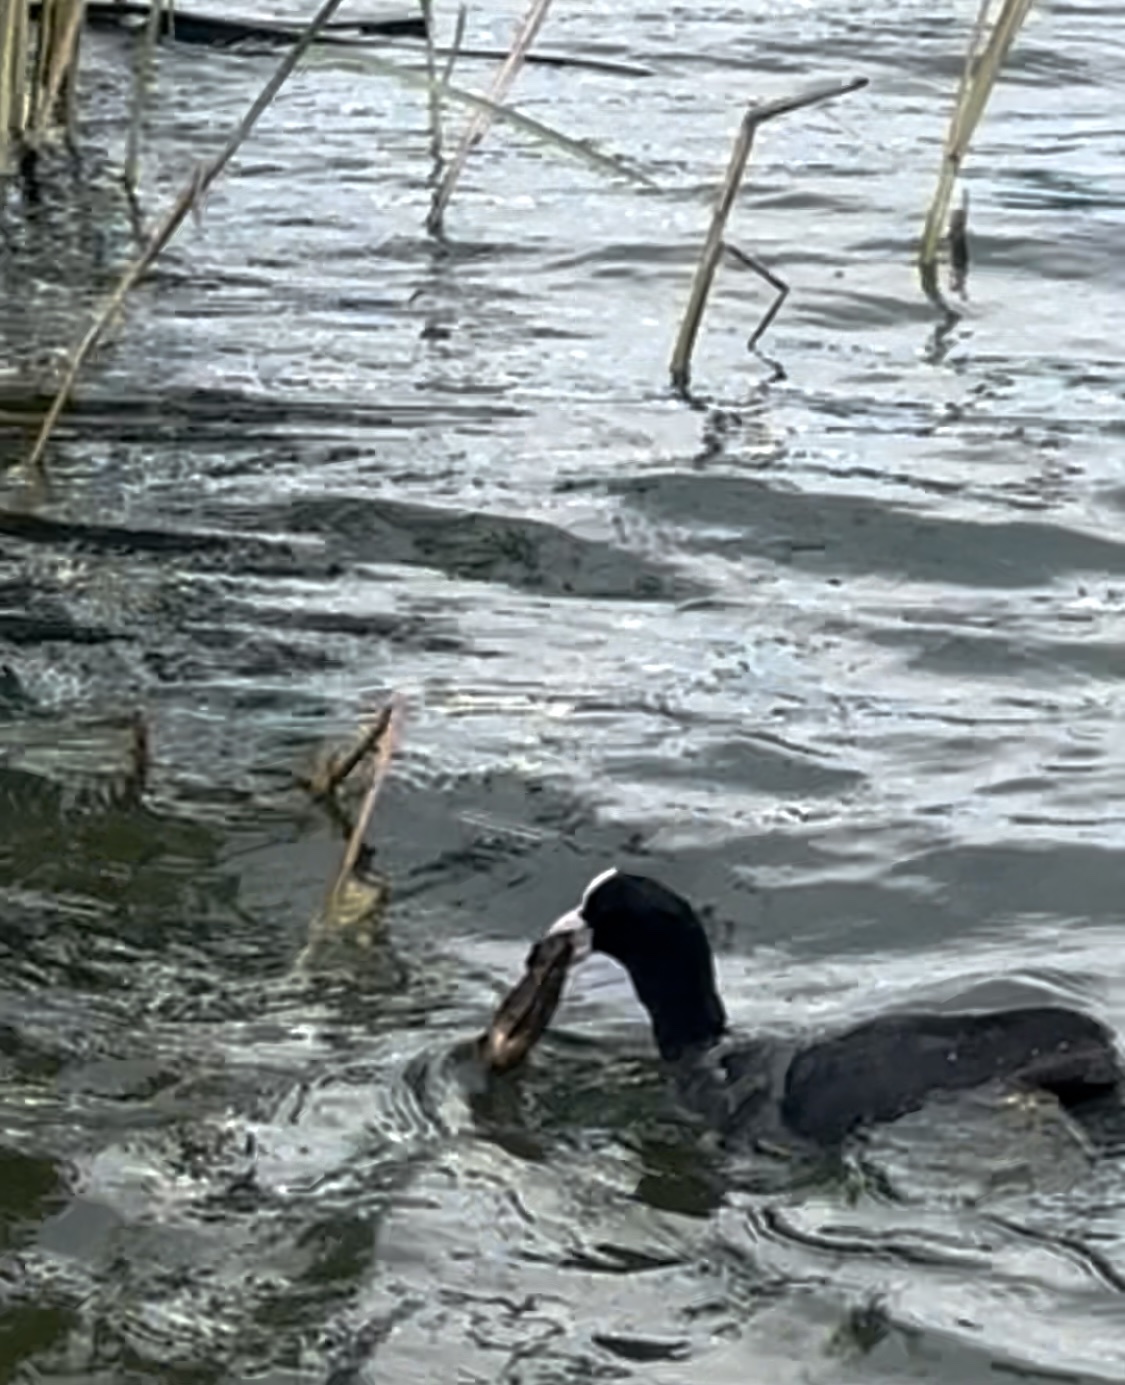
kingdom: Animalia
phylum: Chordata
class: Aves
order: Gruiformes
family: Rallidae
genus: Fulica
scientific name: Fulica atra
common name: Eurasian coot
